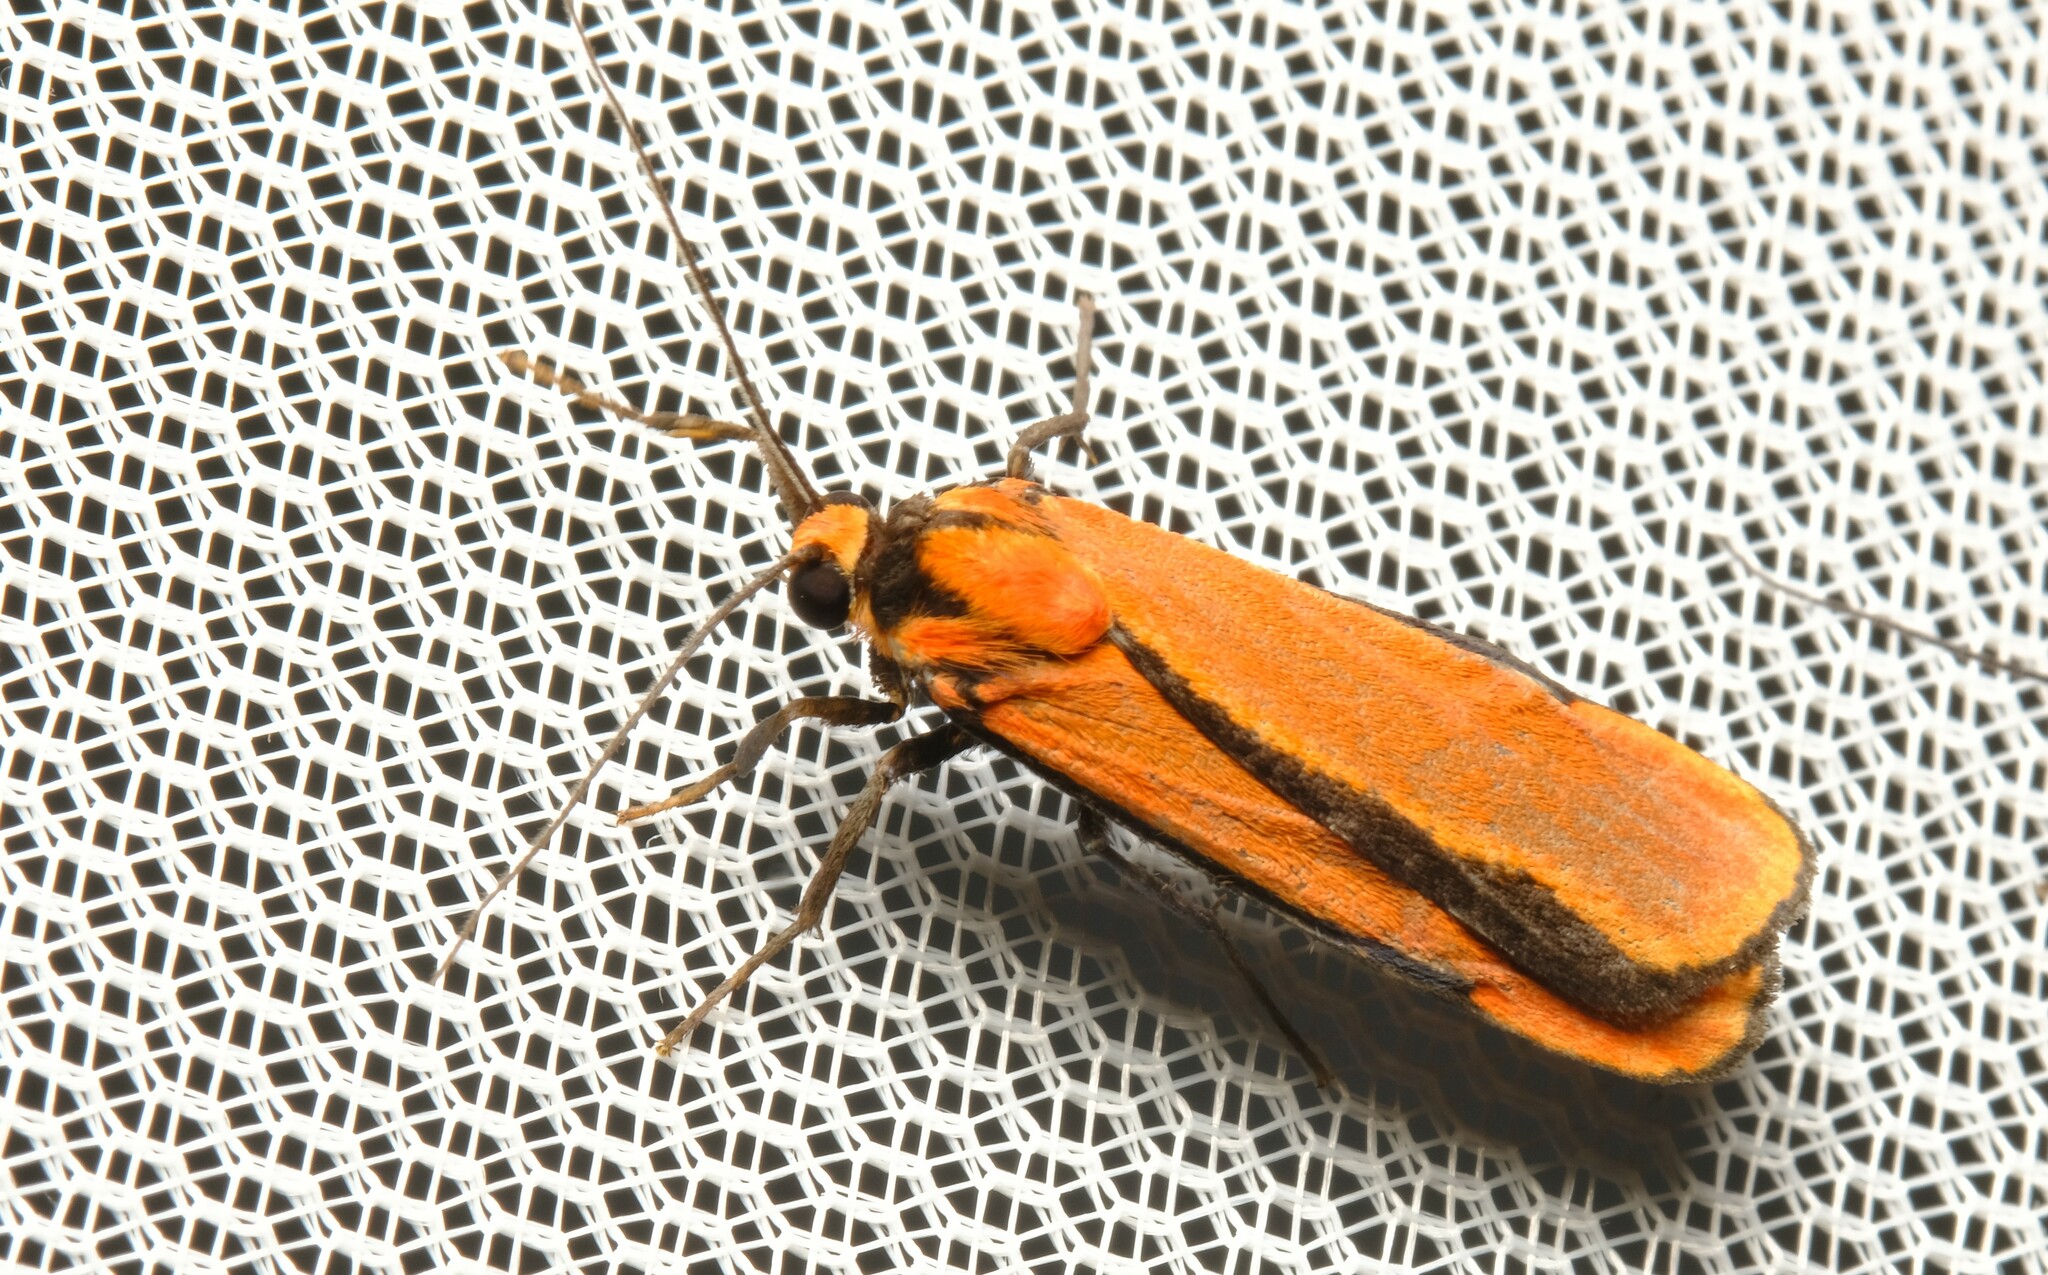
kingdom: Animalia
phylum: Arthropoda
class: Insecta
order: Lepidoptera
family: Erebidae
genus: Cyana
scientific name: Cyana meyricki
